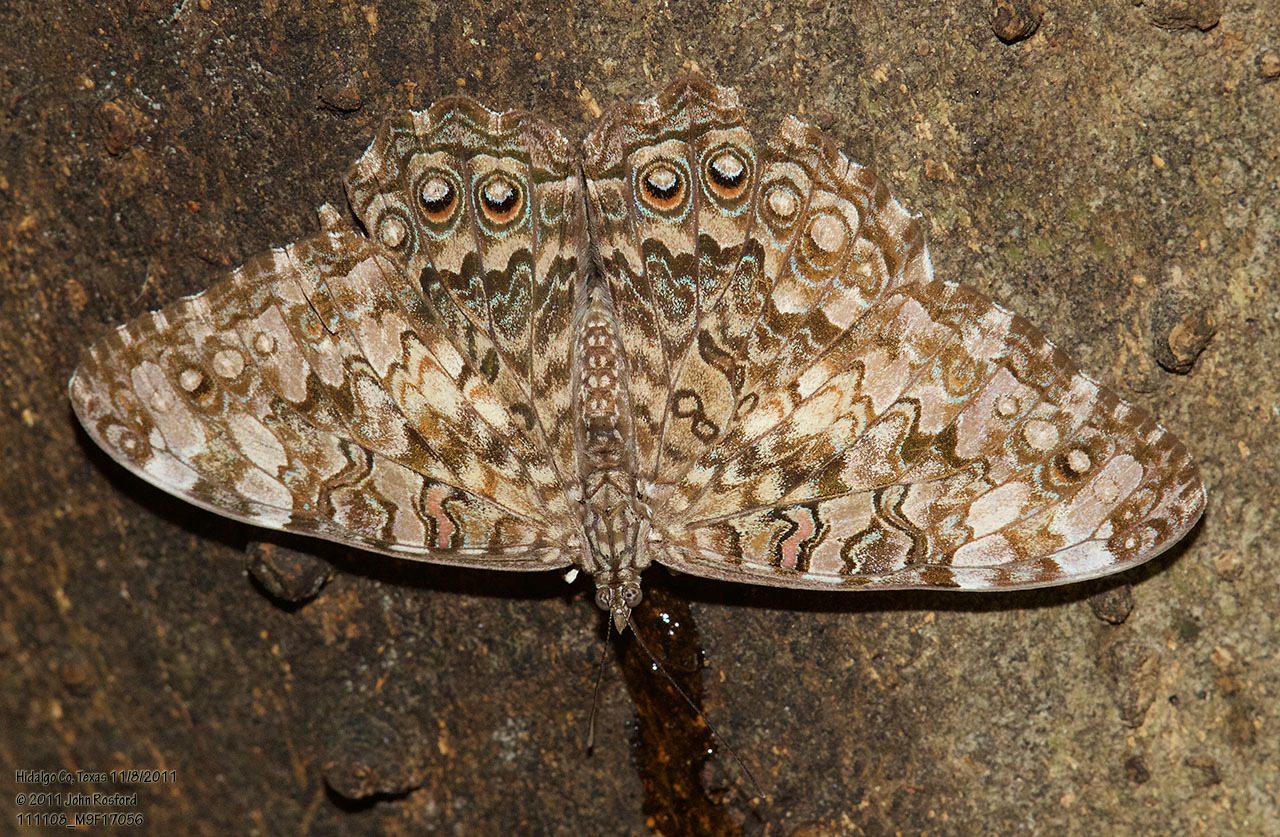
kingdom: Animalia
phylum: Arthropoda
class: Insecta
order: Lepidoptera
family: Nymphalidae
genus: Hamadryas
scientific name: Hamadryas februa
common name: Gray cracker
